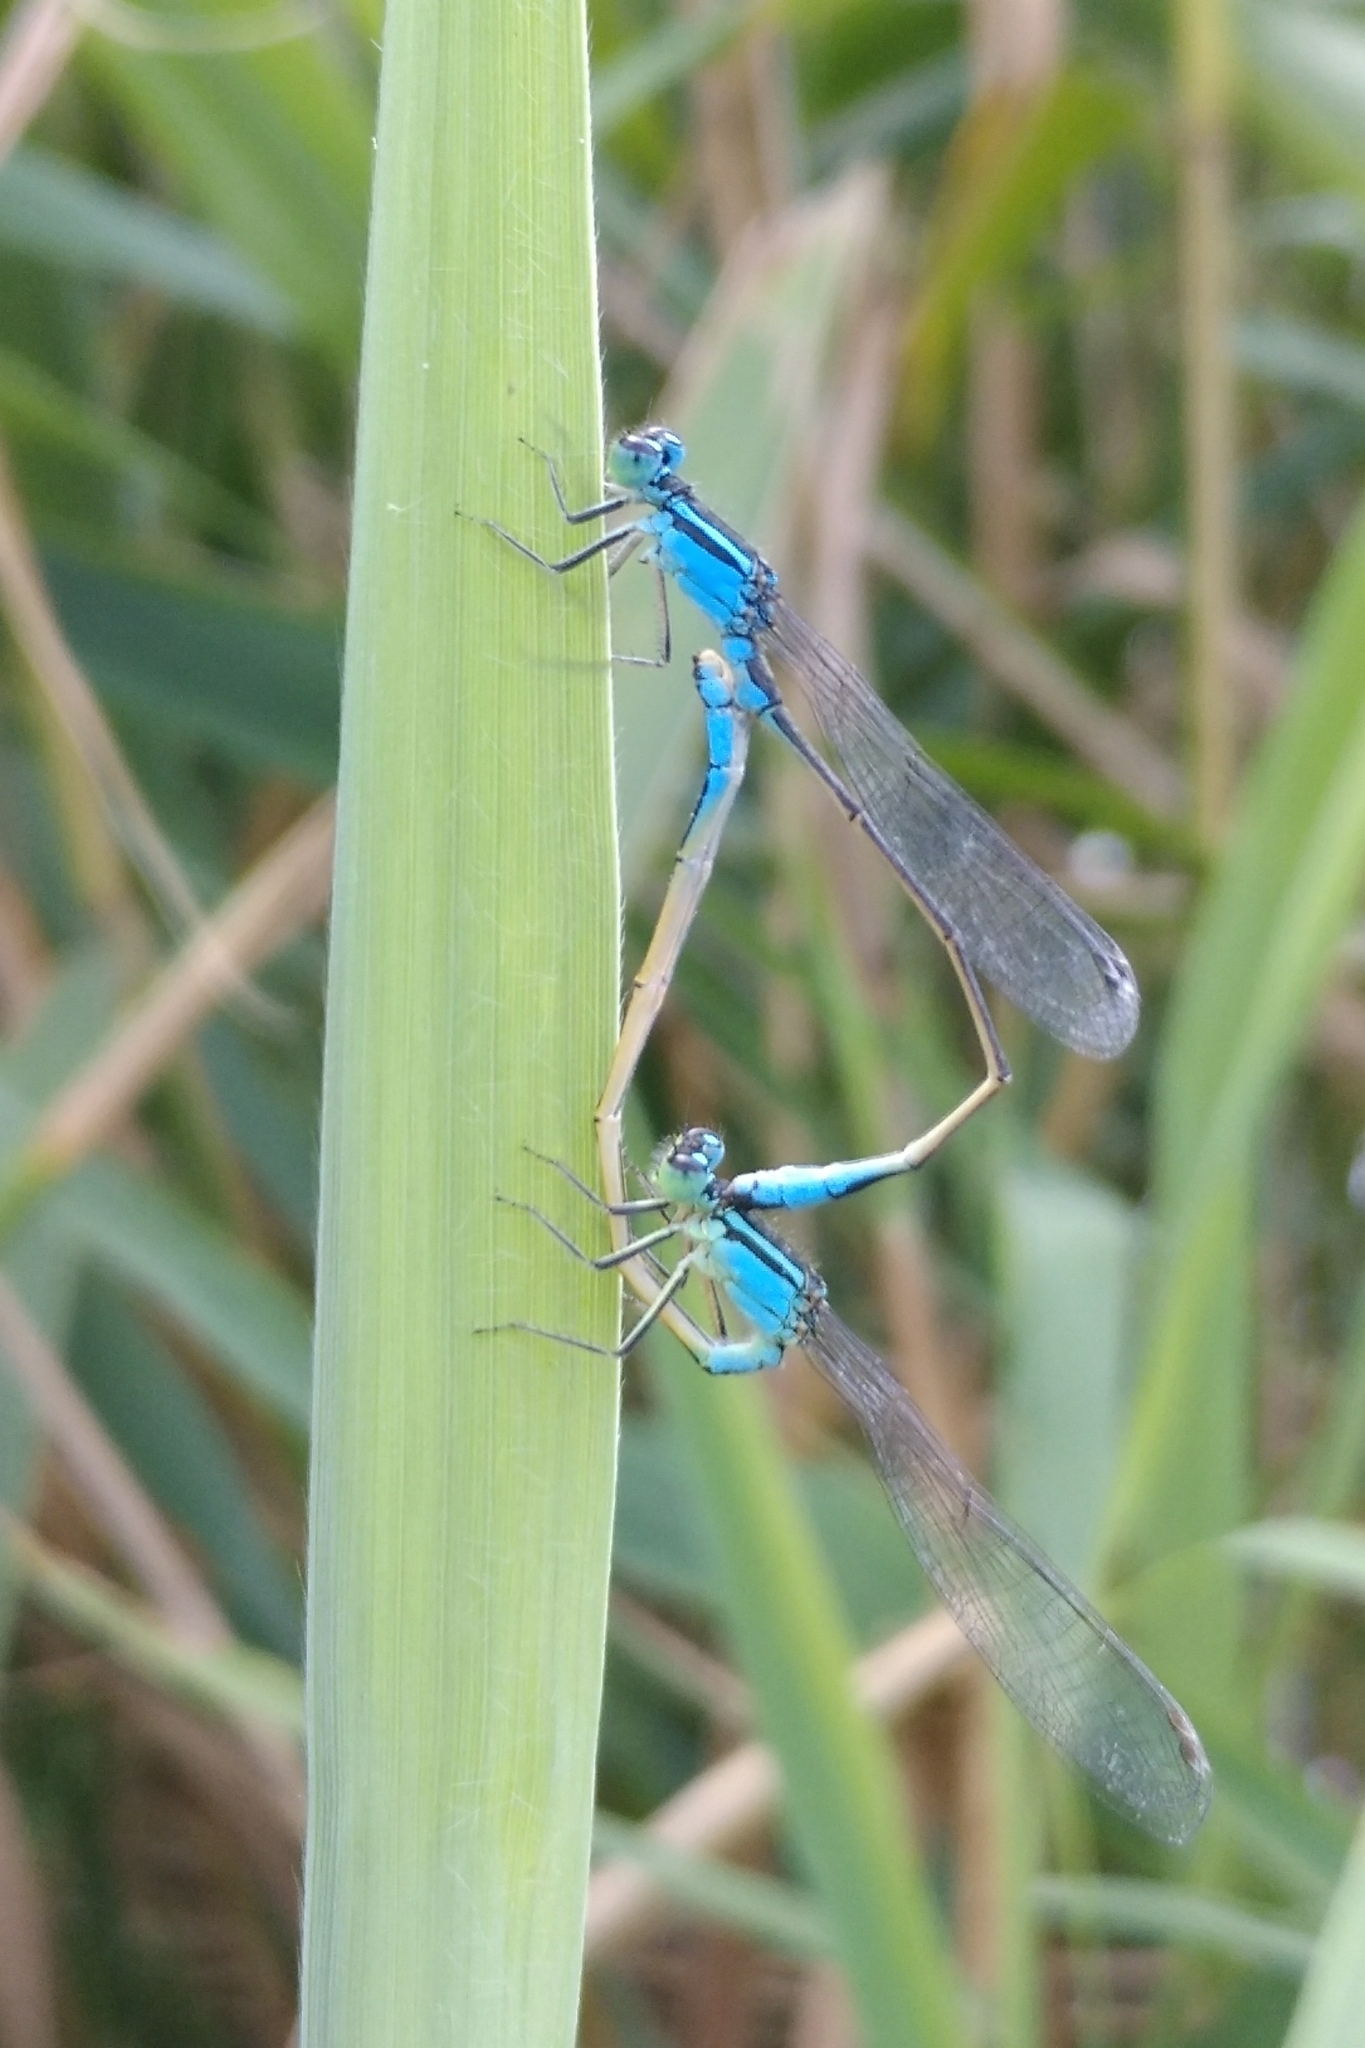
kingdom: Animalia
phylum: Arthropoda
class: Insecta
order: Odonata
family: Coenagrionidae
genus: Ischnura
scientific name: Ischnura elegans
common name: Blue-tailed damselfly
